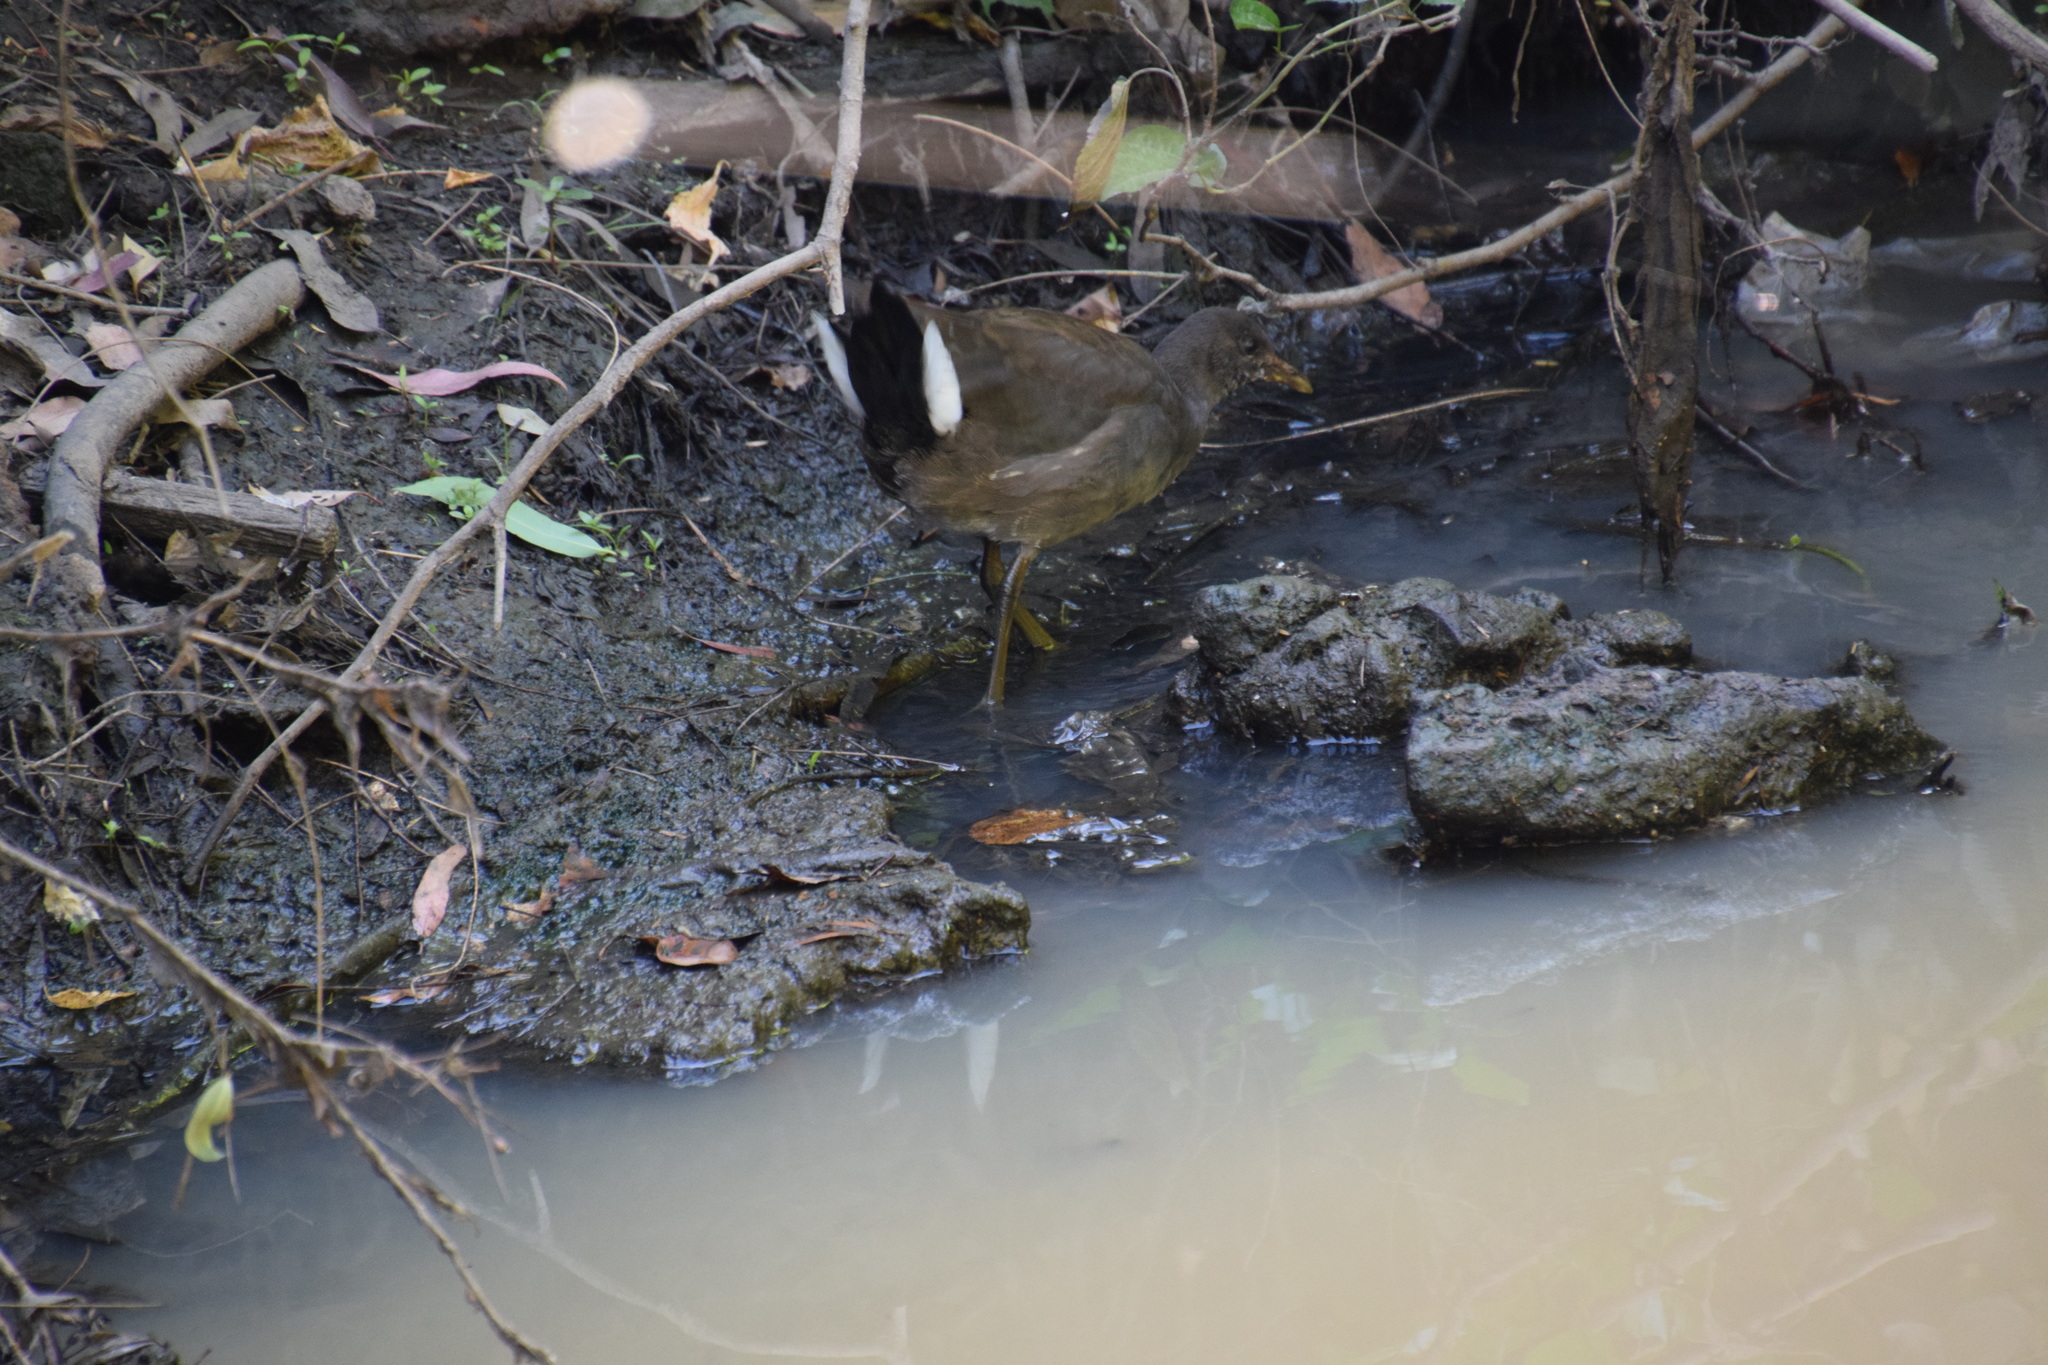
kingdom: Animalia
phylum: Chordata
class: Aves
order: Gruiformes
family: Rallidae
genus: Gallinula
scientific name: Gallinula tenebrosa
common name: Dusky moorhen
